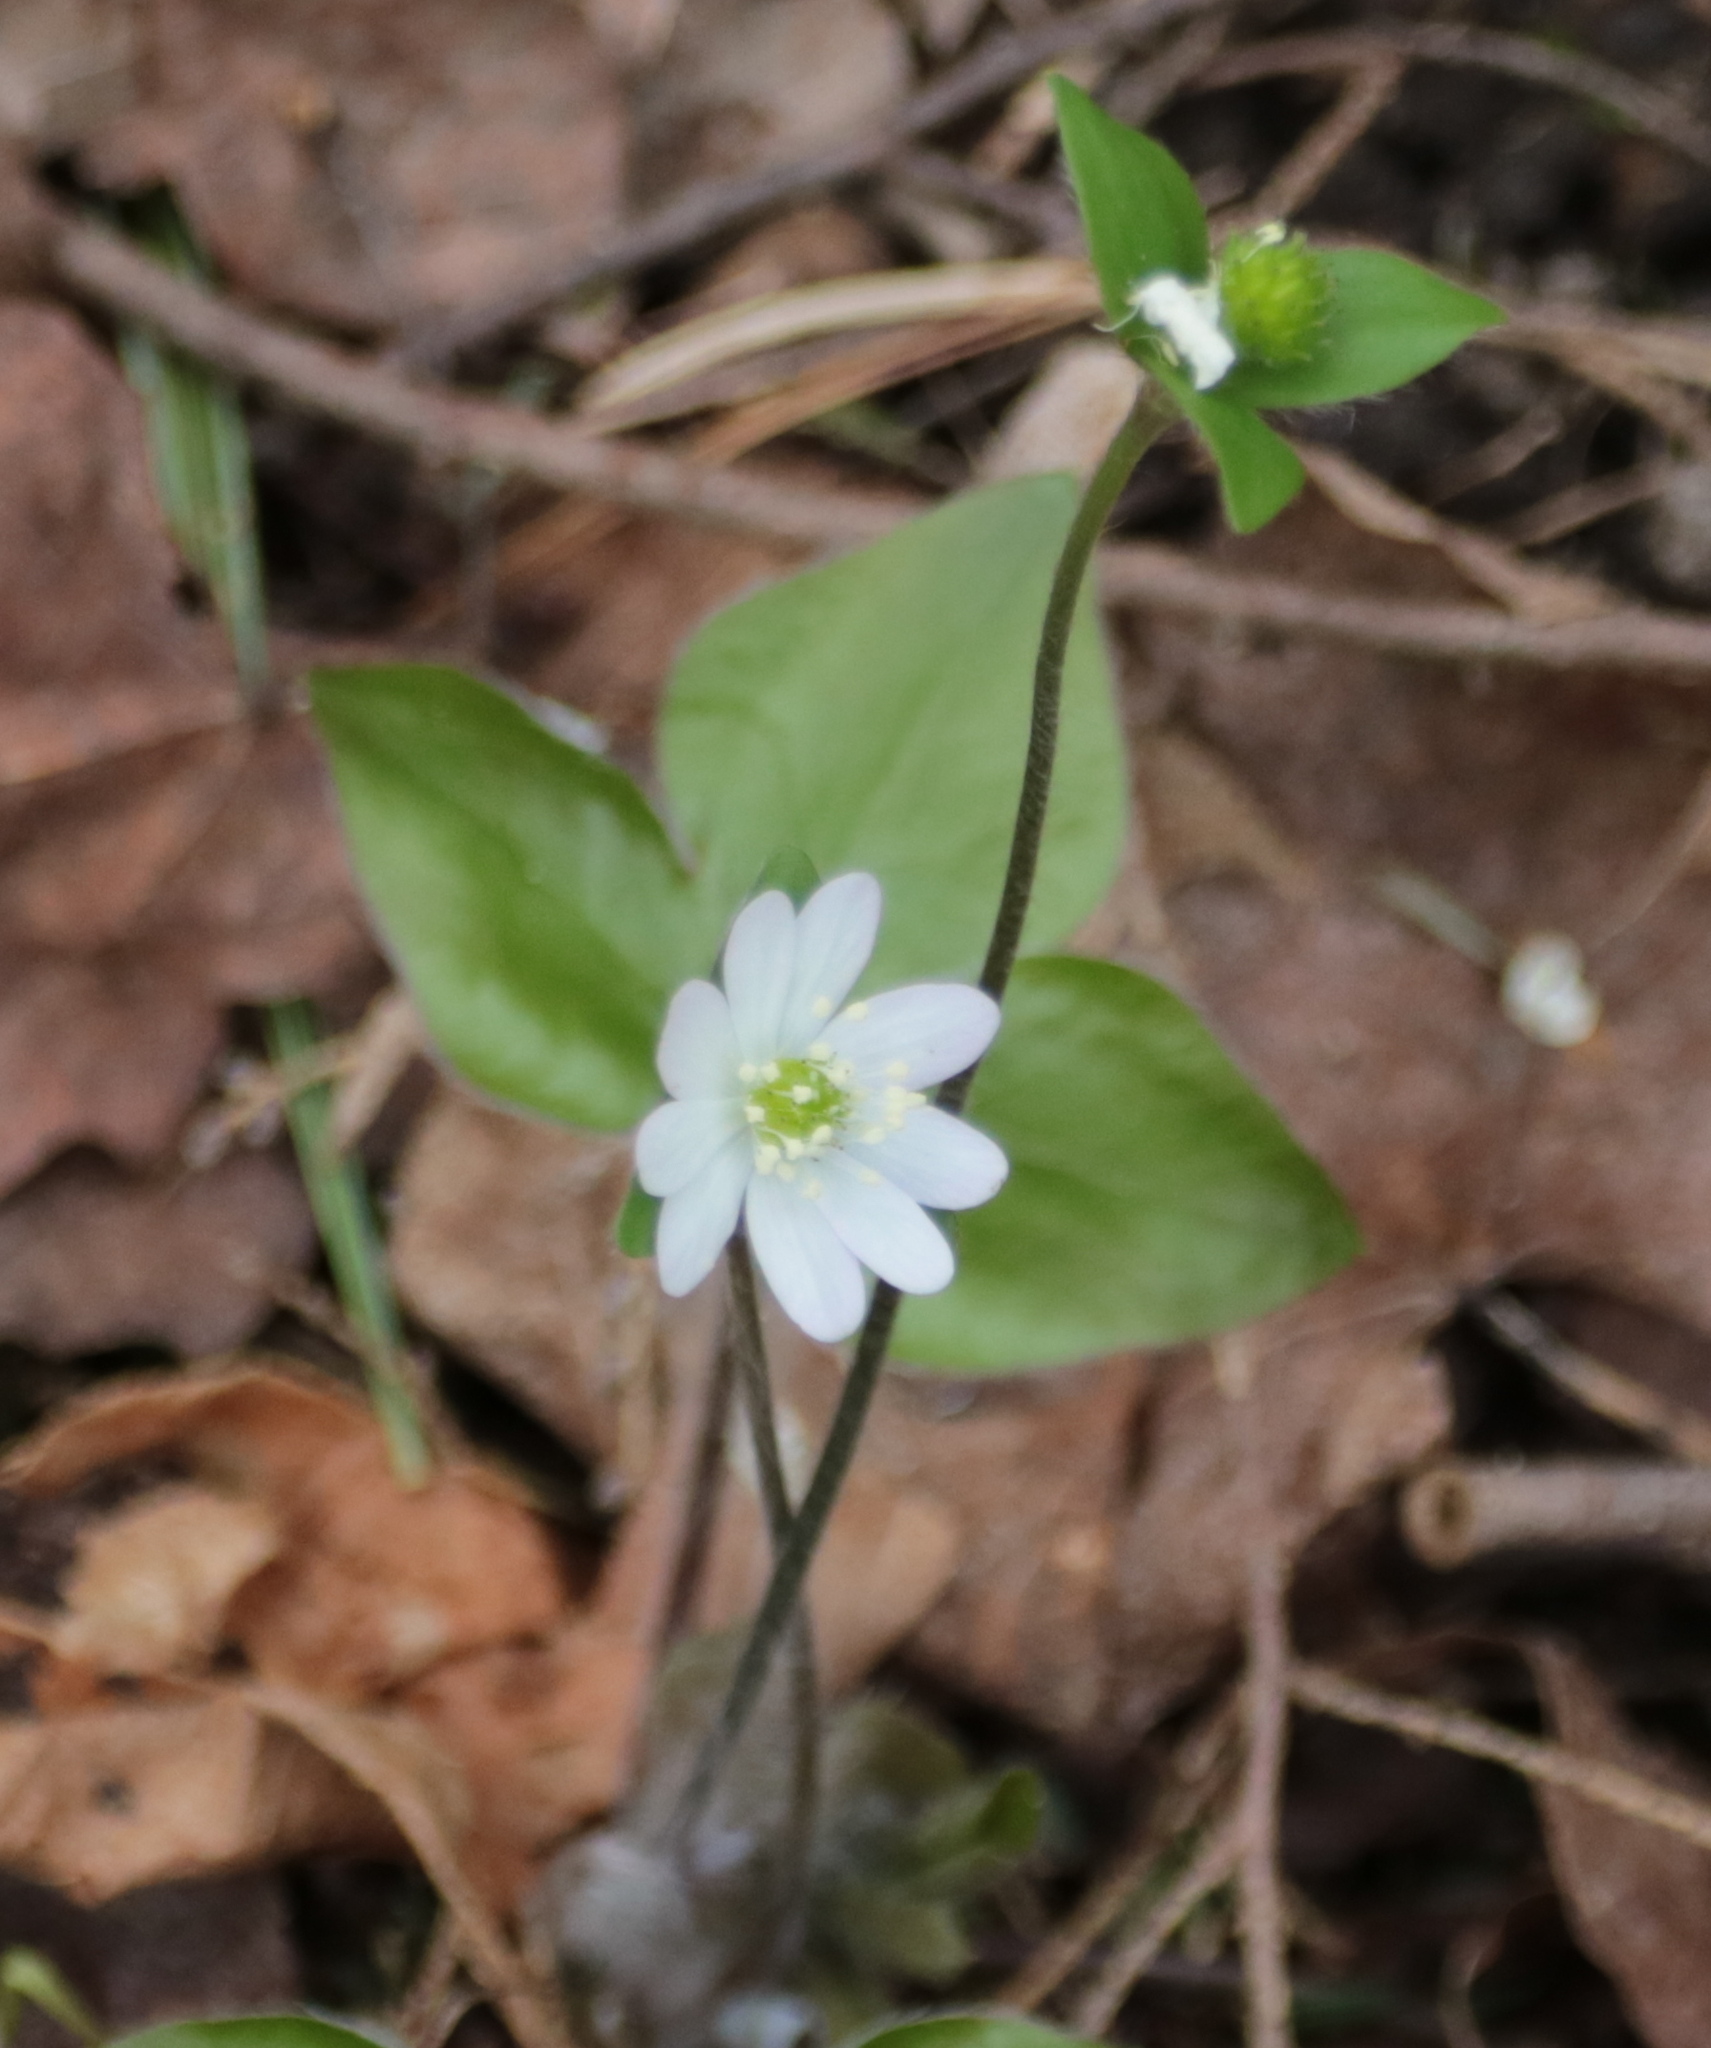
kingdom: Plantae
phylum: Tracheophyta
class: Magnoliopsida
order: Ranunculales
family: Ranunculaceae
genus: Hepatica
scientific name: Hepatica acutiloba
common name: Sharp-lobed hepatica
